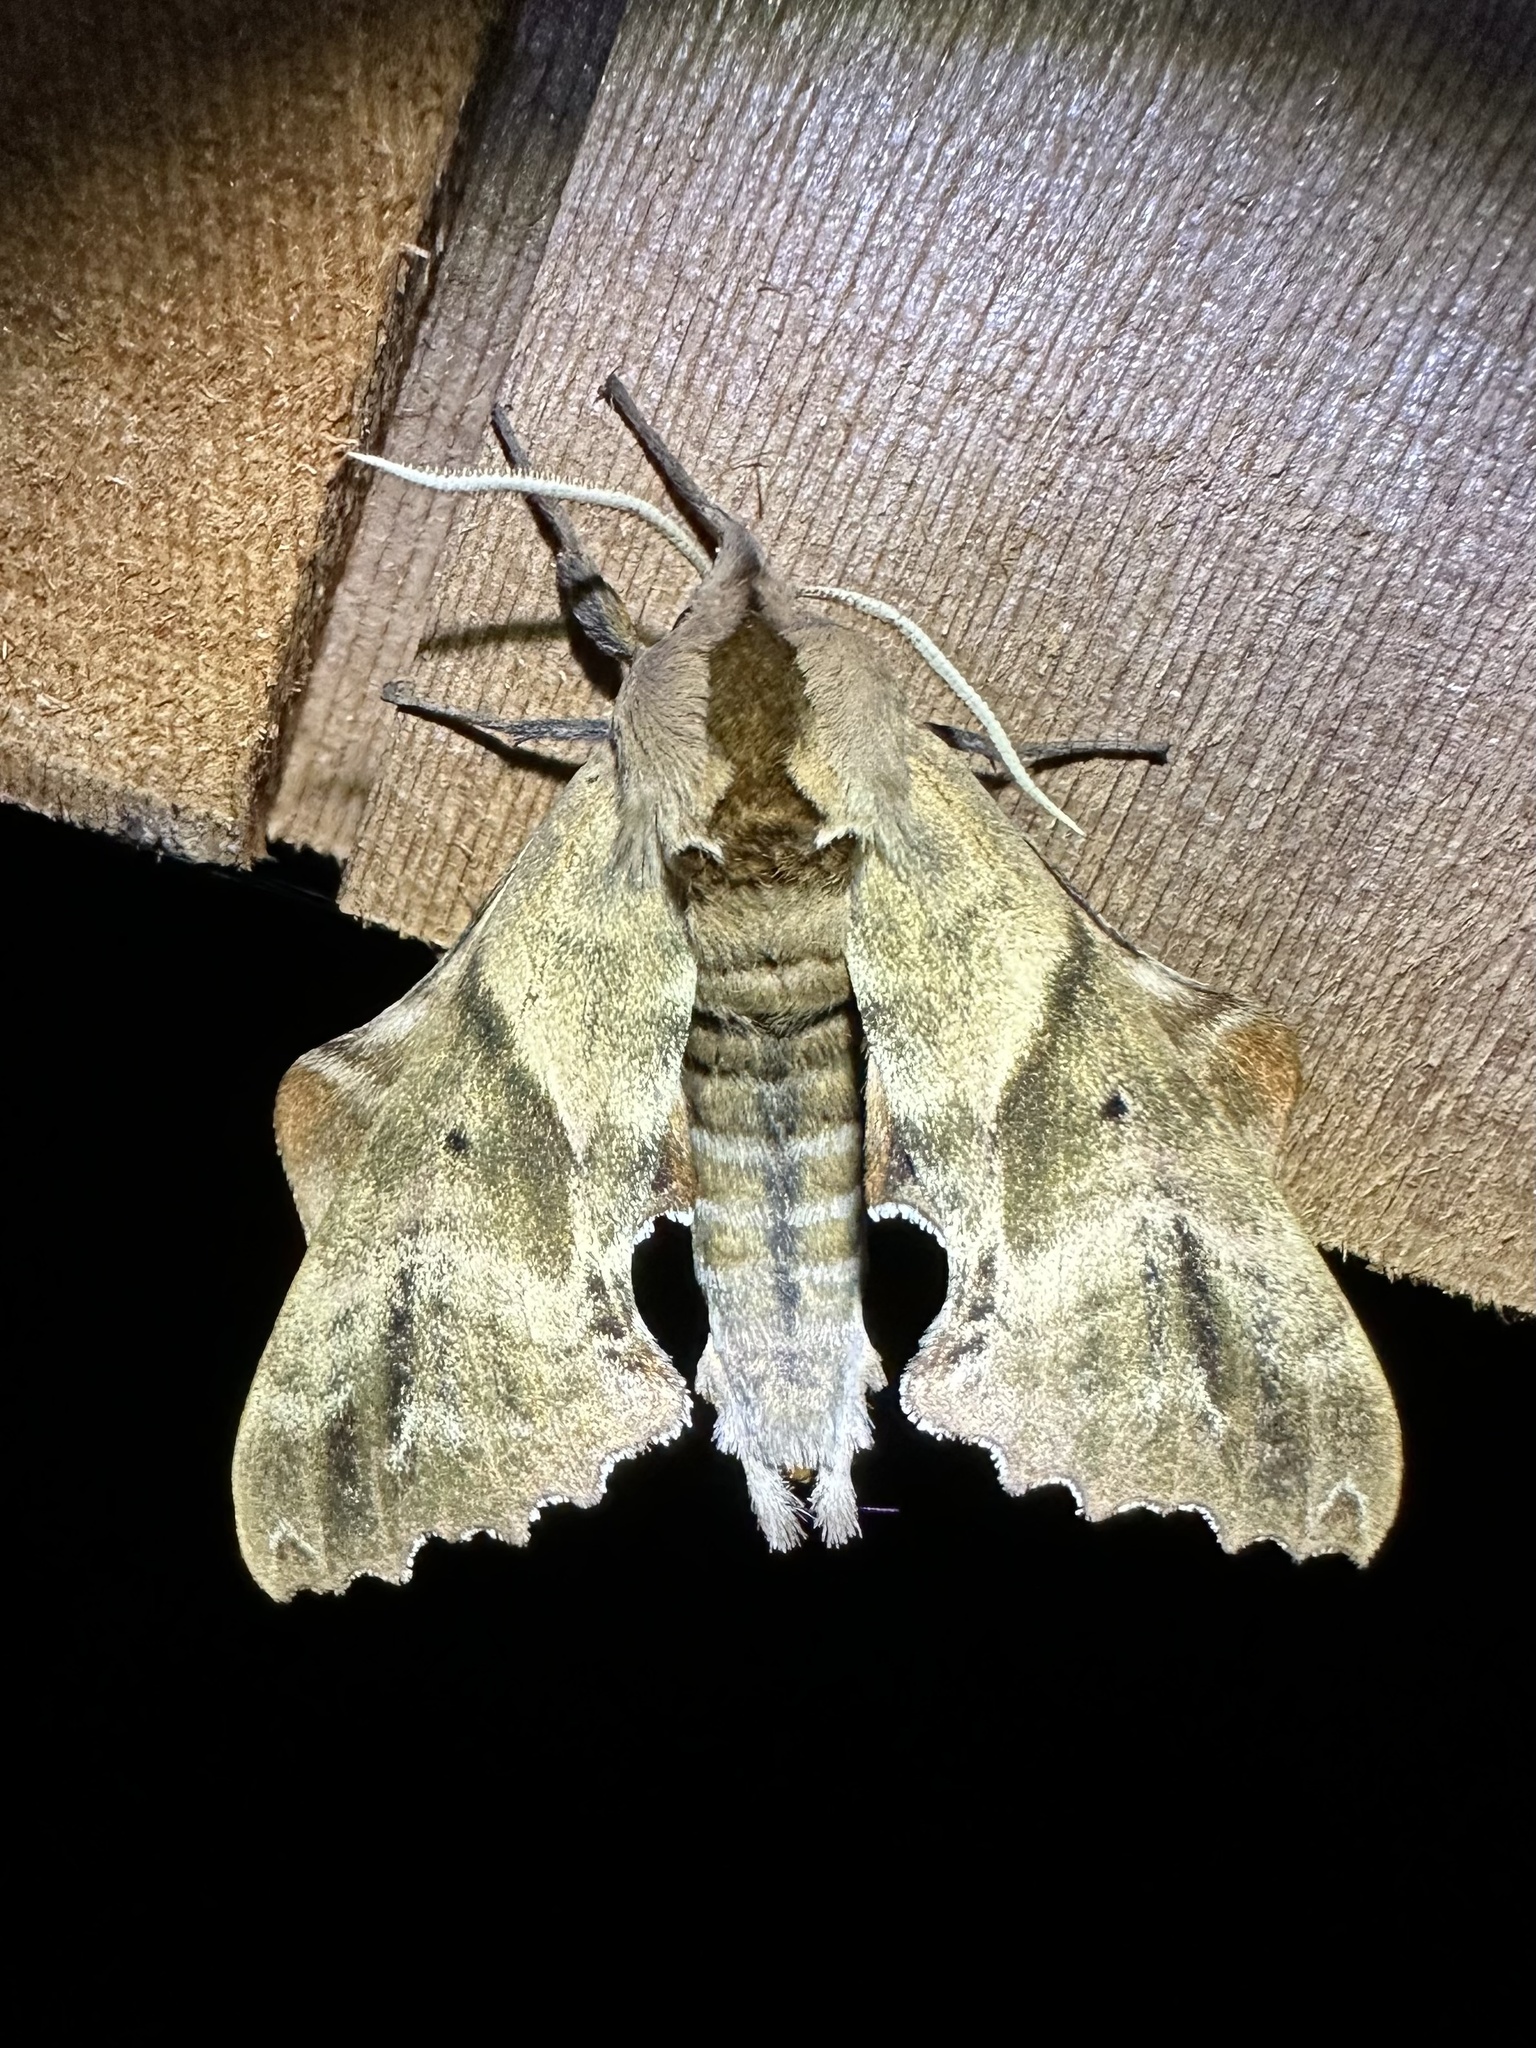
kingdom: Animalia
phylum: Arthropoda
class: Insecta
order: Lepidoptera
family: Sphingidae
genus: Paonias
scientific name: Paonias excaecata
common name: Blind-eyed sphinx
